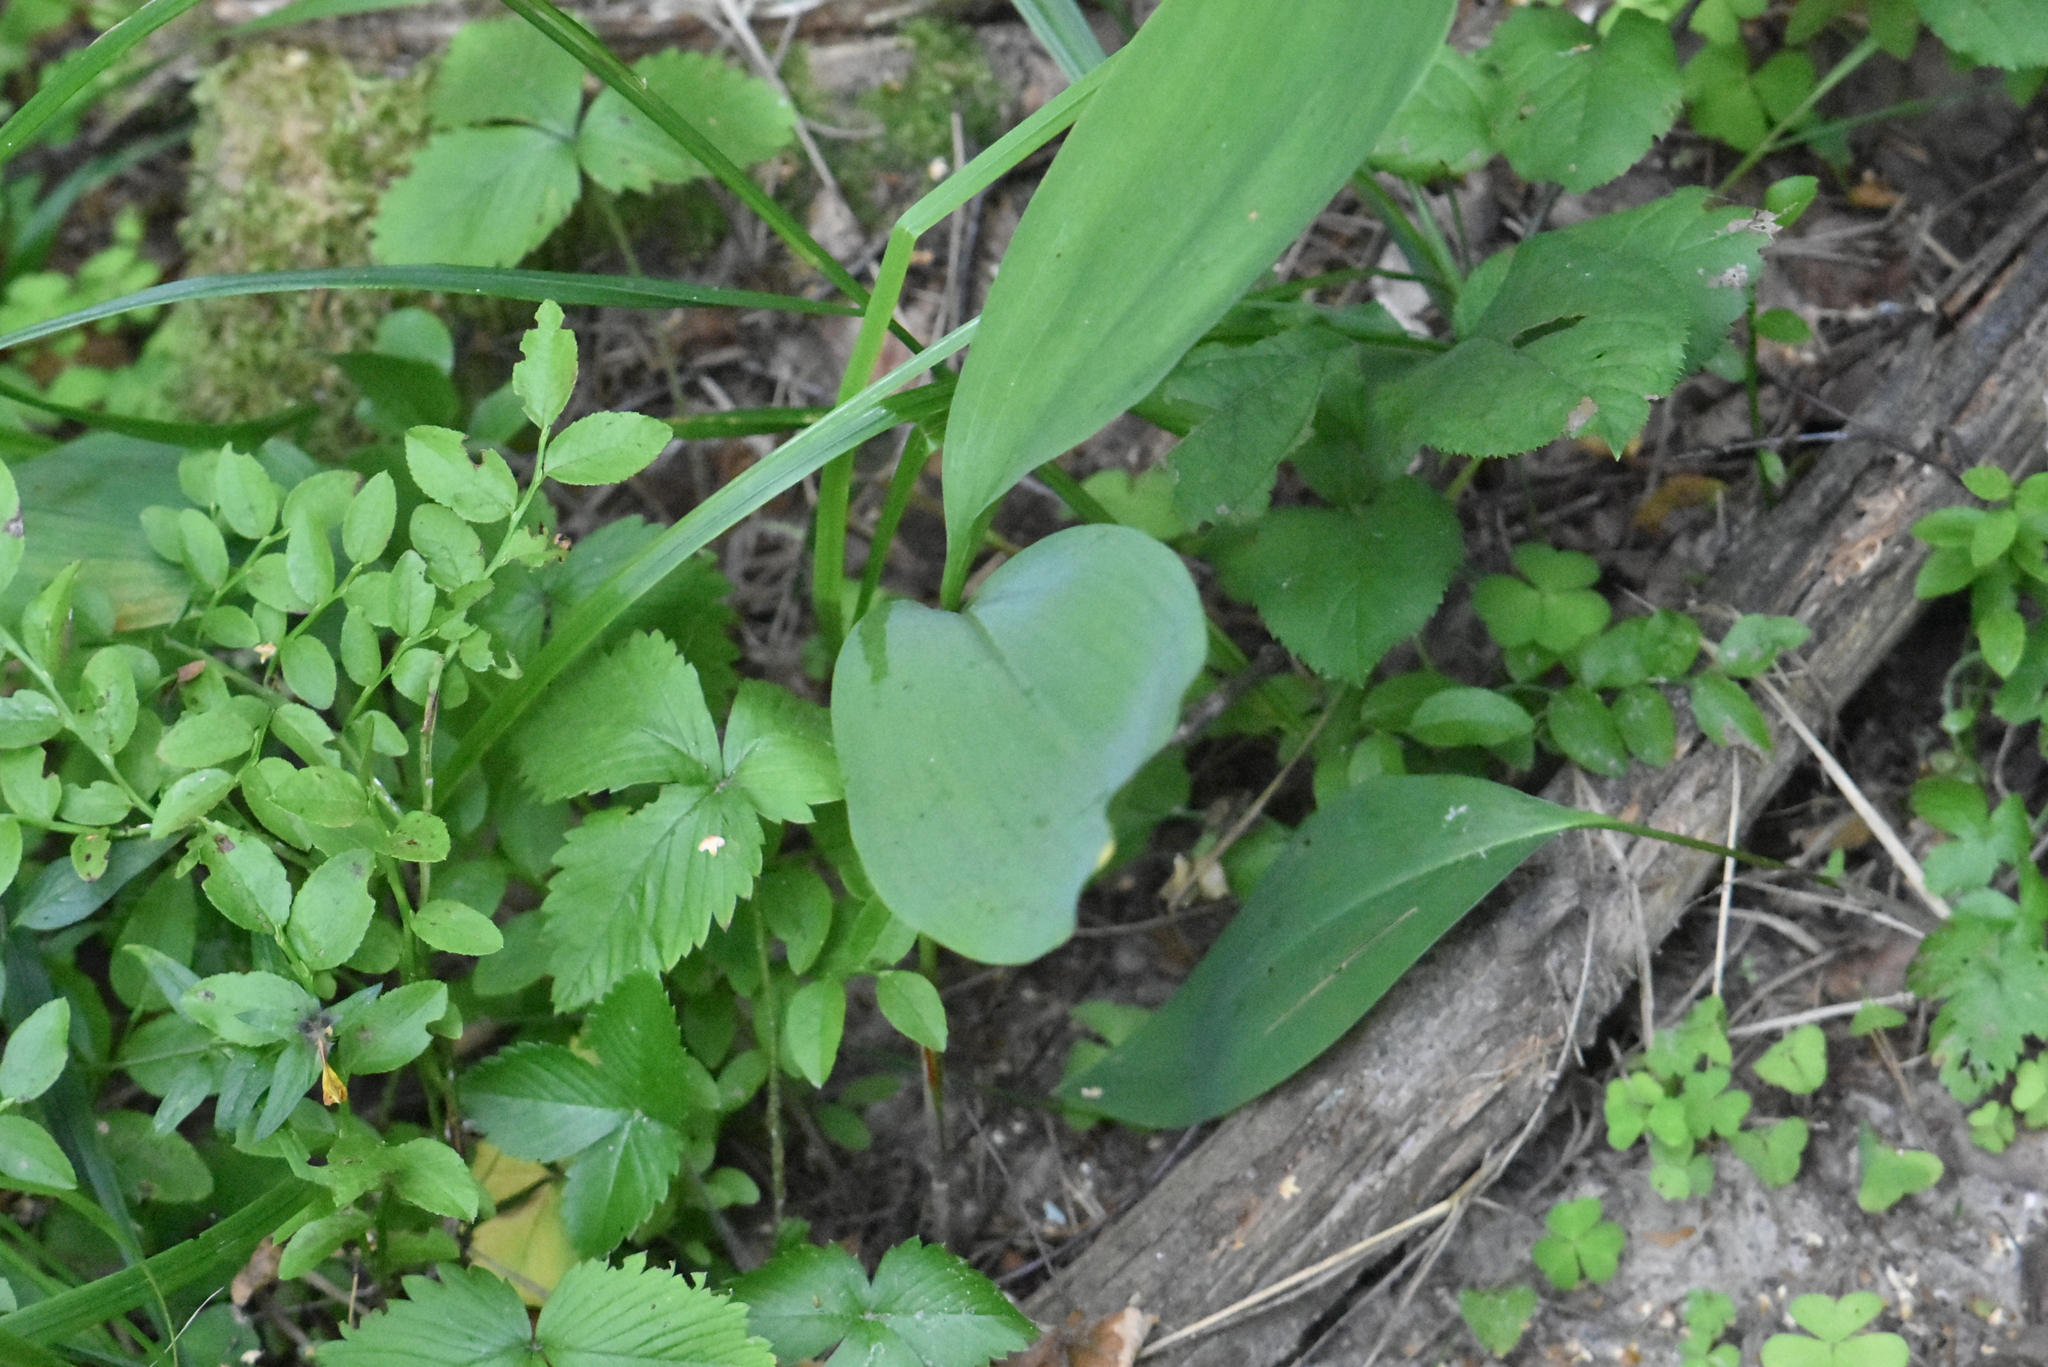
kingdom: Plantae
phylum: Tracheophyta
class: Liliopsida
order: Asparagales
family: Asparagaceae
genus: Convallaria
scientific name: Convallaria majalis
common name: Lily-of-the-valley
